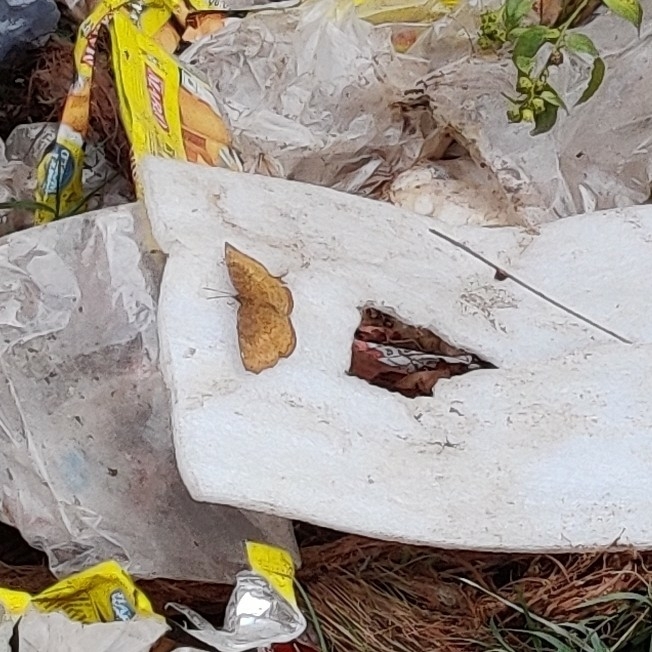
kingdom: Animalia
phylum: Arthropoda
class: Insecta
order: Lepidoptera
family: Nymphalidae
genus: Ariadne
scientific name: Ariadne merione
